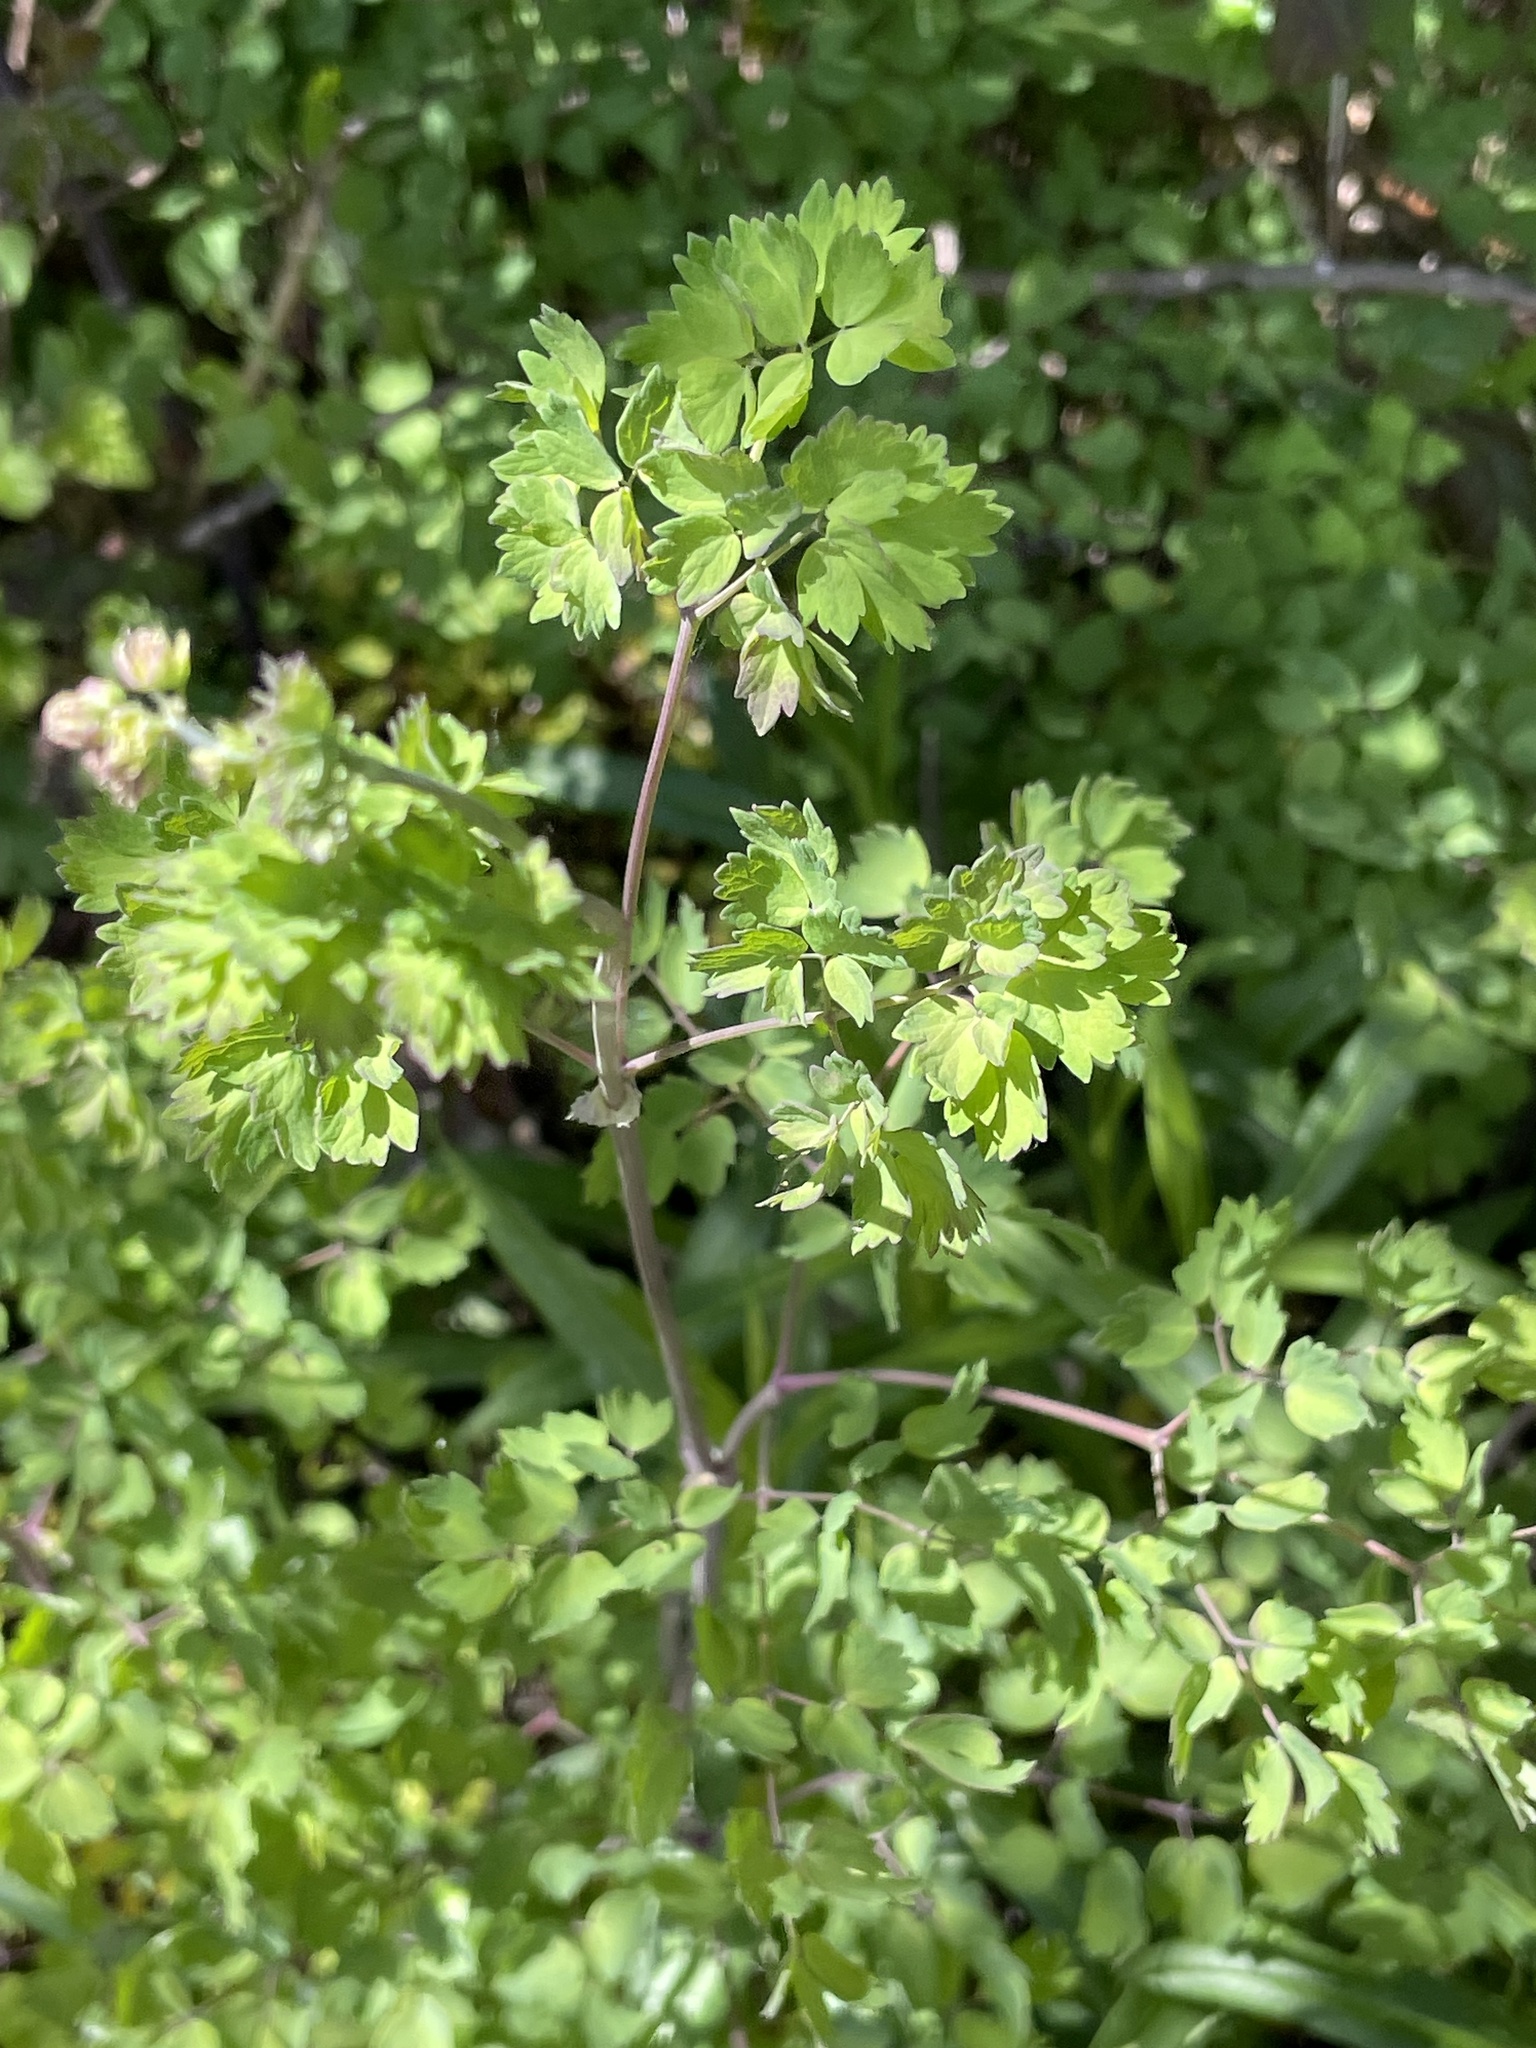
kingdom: Plantae
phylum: Tracheophyta
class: Magnoliopsida
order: Ranunculales
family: Ranunculaceae
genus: Thalictrum
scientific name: Thalictrum fendleri
